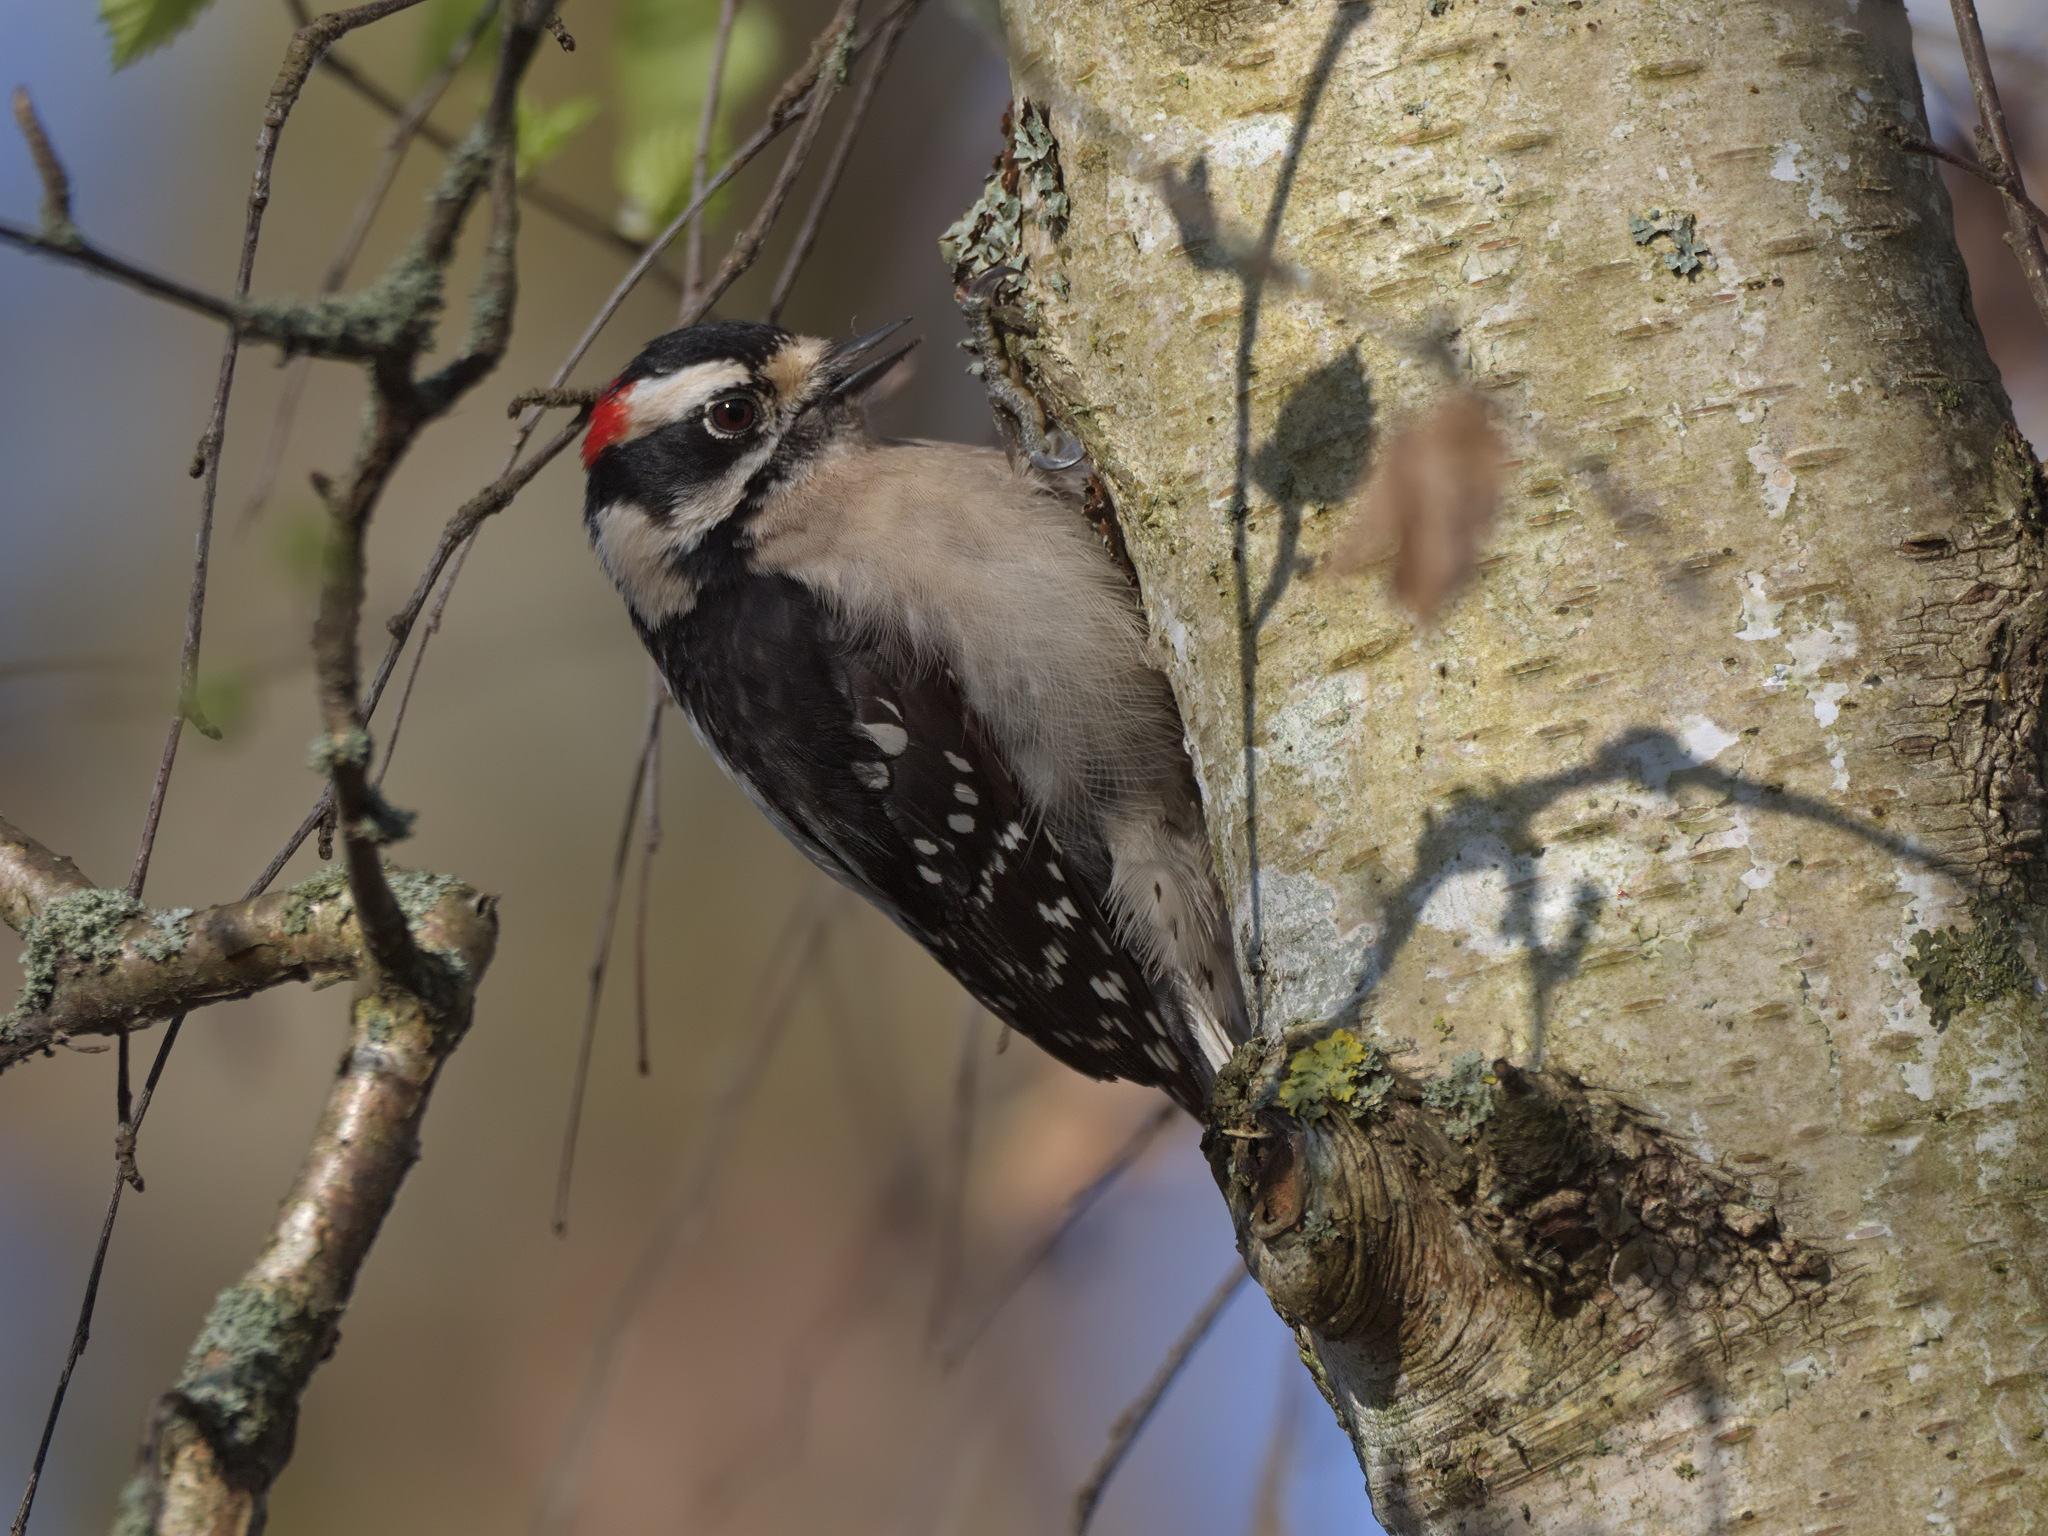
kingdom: Animalia
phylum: Chordata
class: Aves
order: Piciformes
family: Picidae
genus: Dryobates
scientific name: Dryobates pubescens
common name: Downy woodpecker
